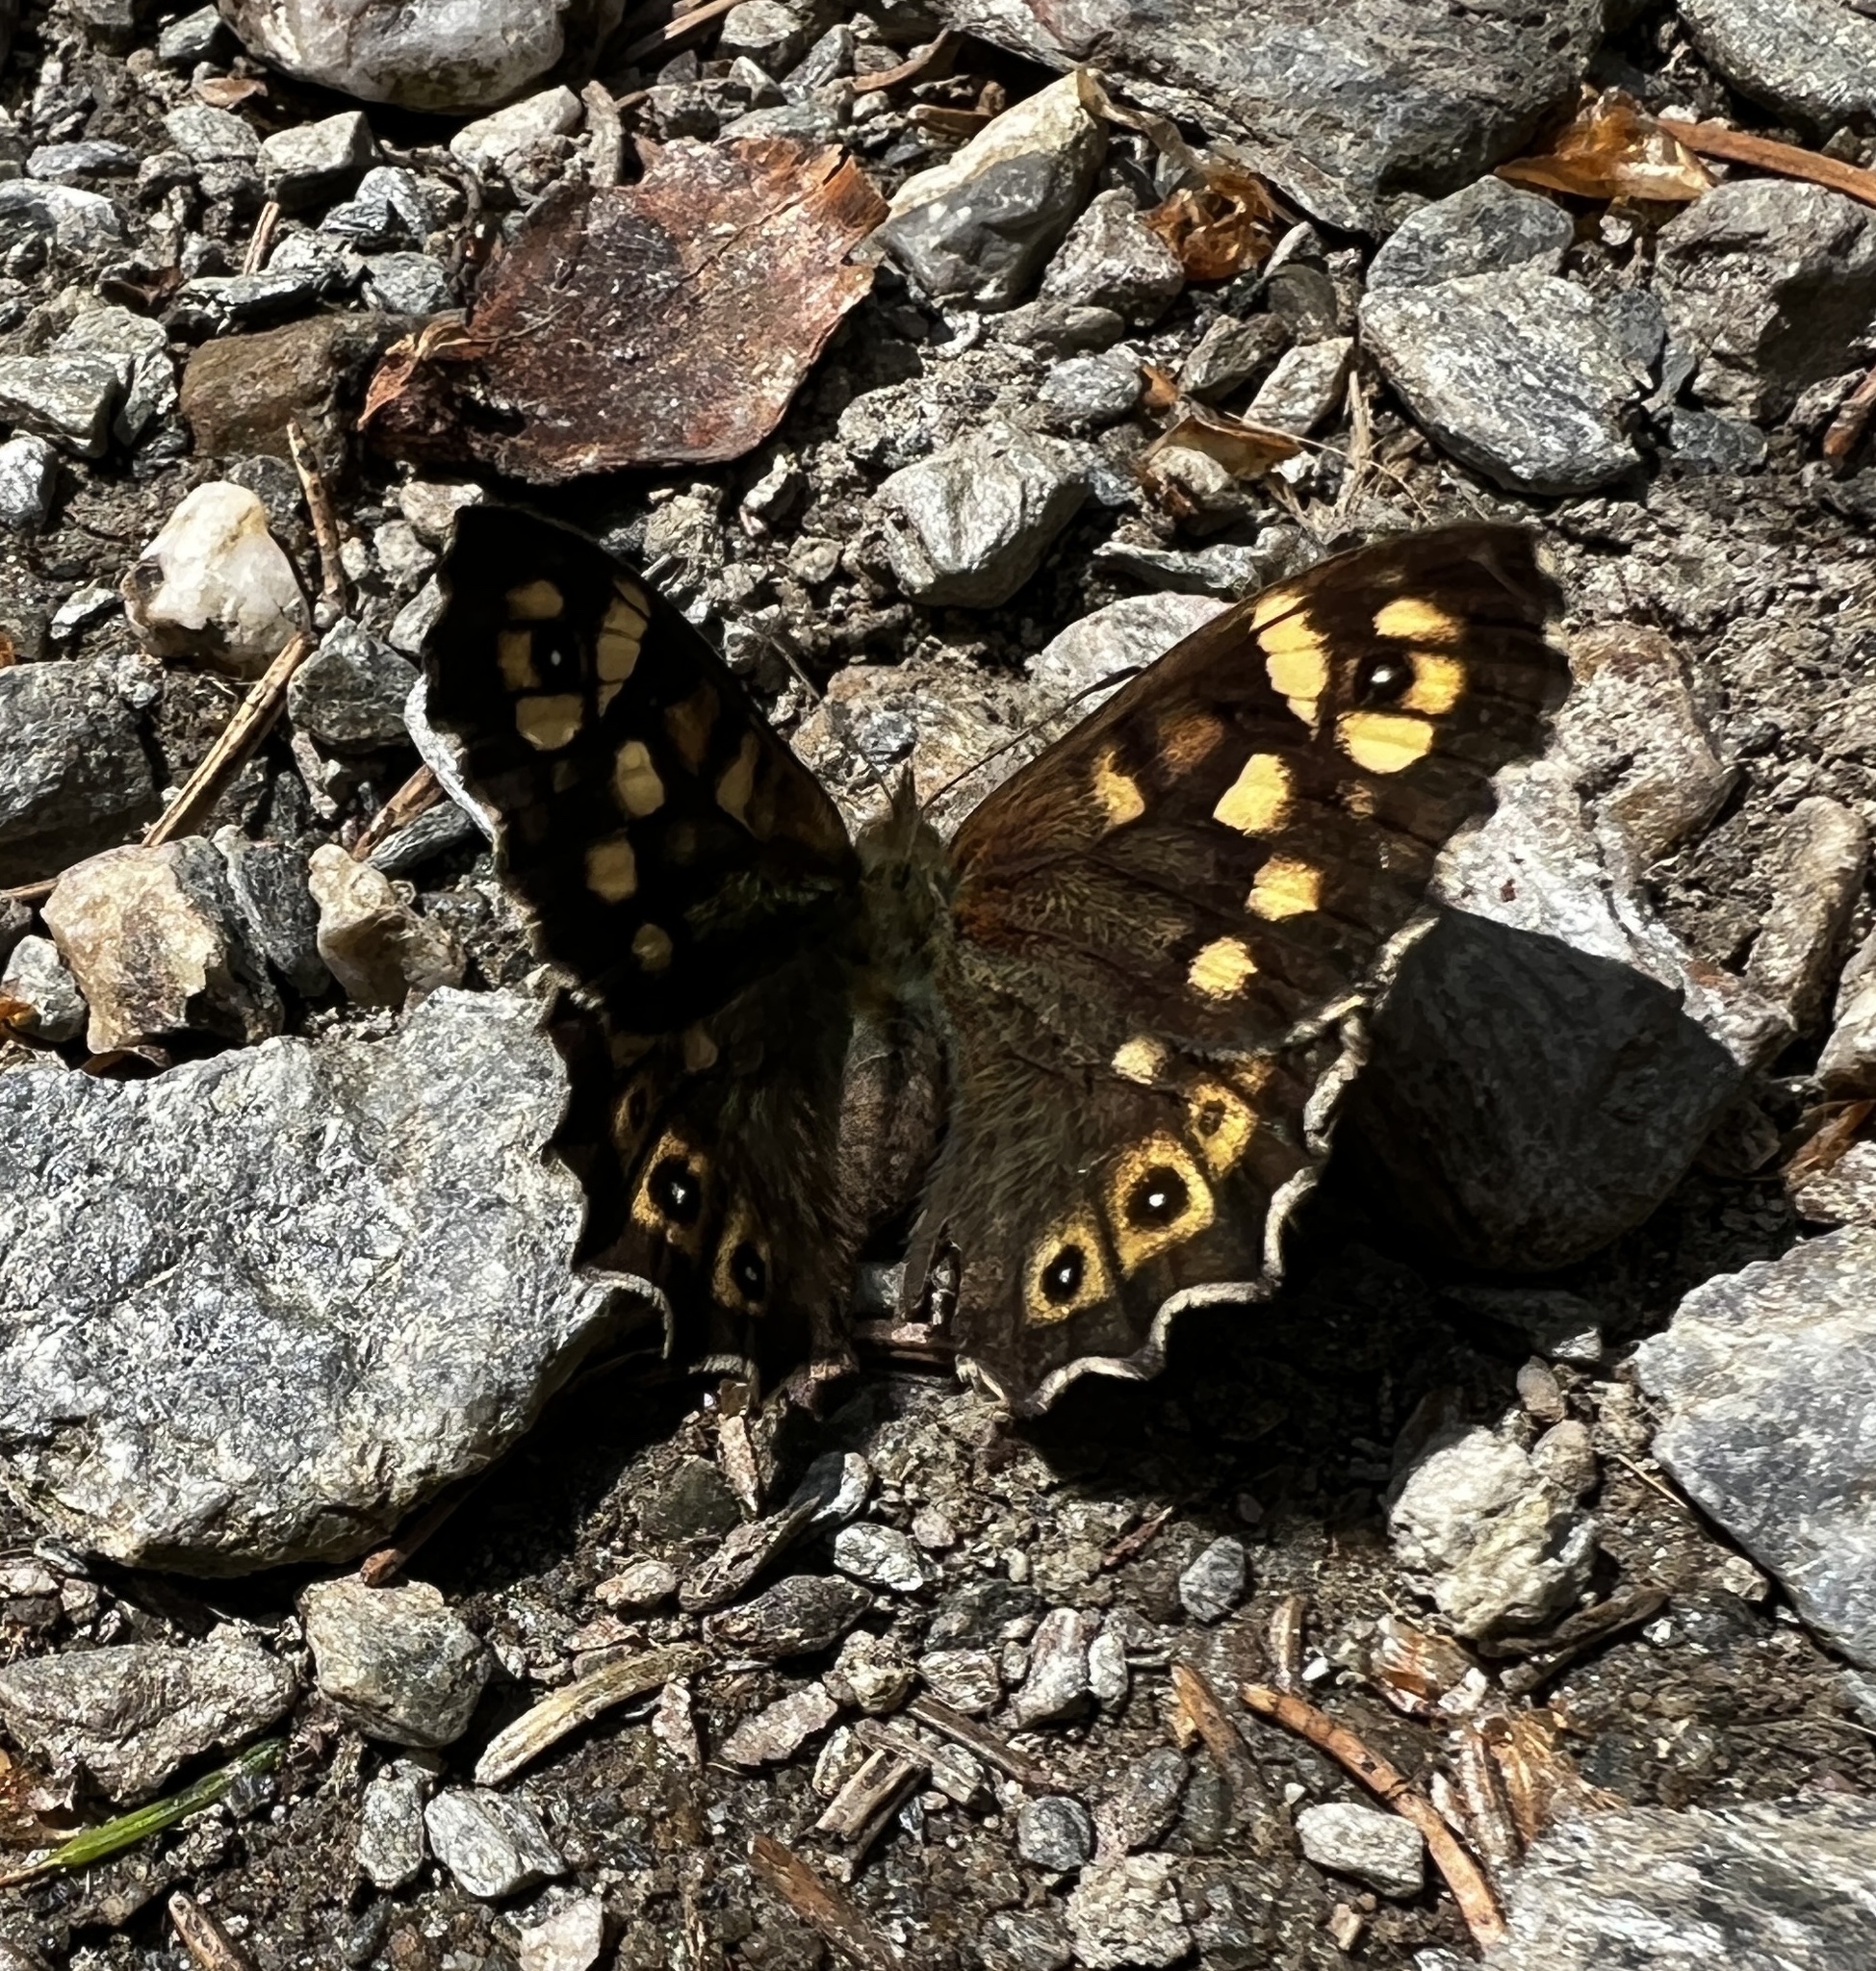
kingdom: Animalia
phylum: Arthropoda
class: Insecta
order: Lepidoptera
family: Nymphalidae
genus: Pararge
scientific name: Pararge aegeria
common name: Speckled wood
